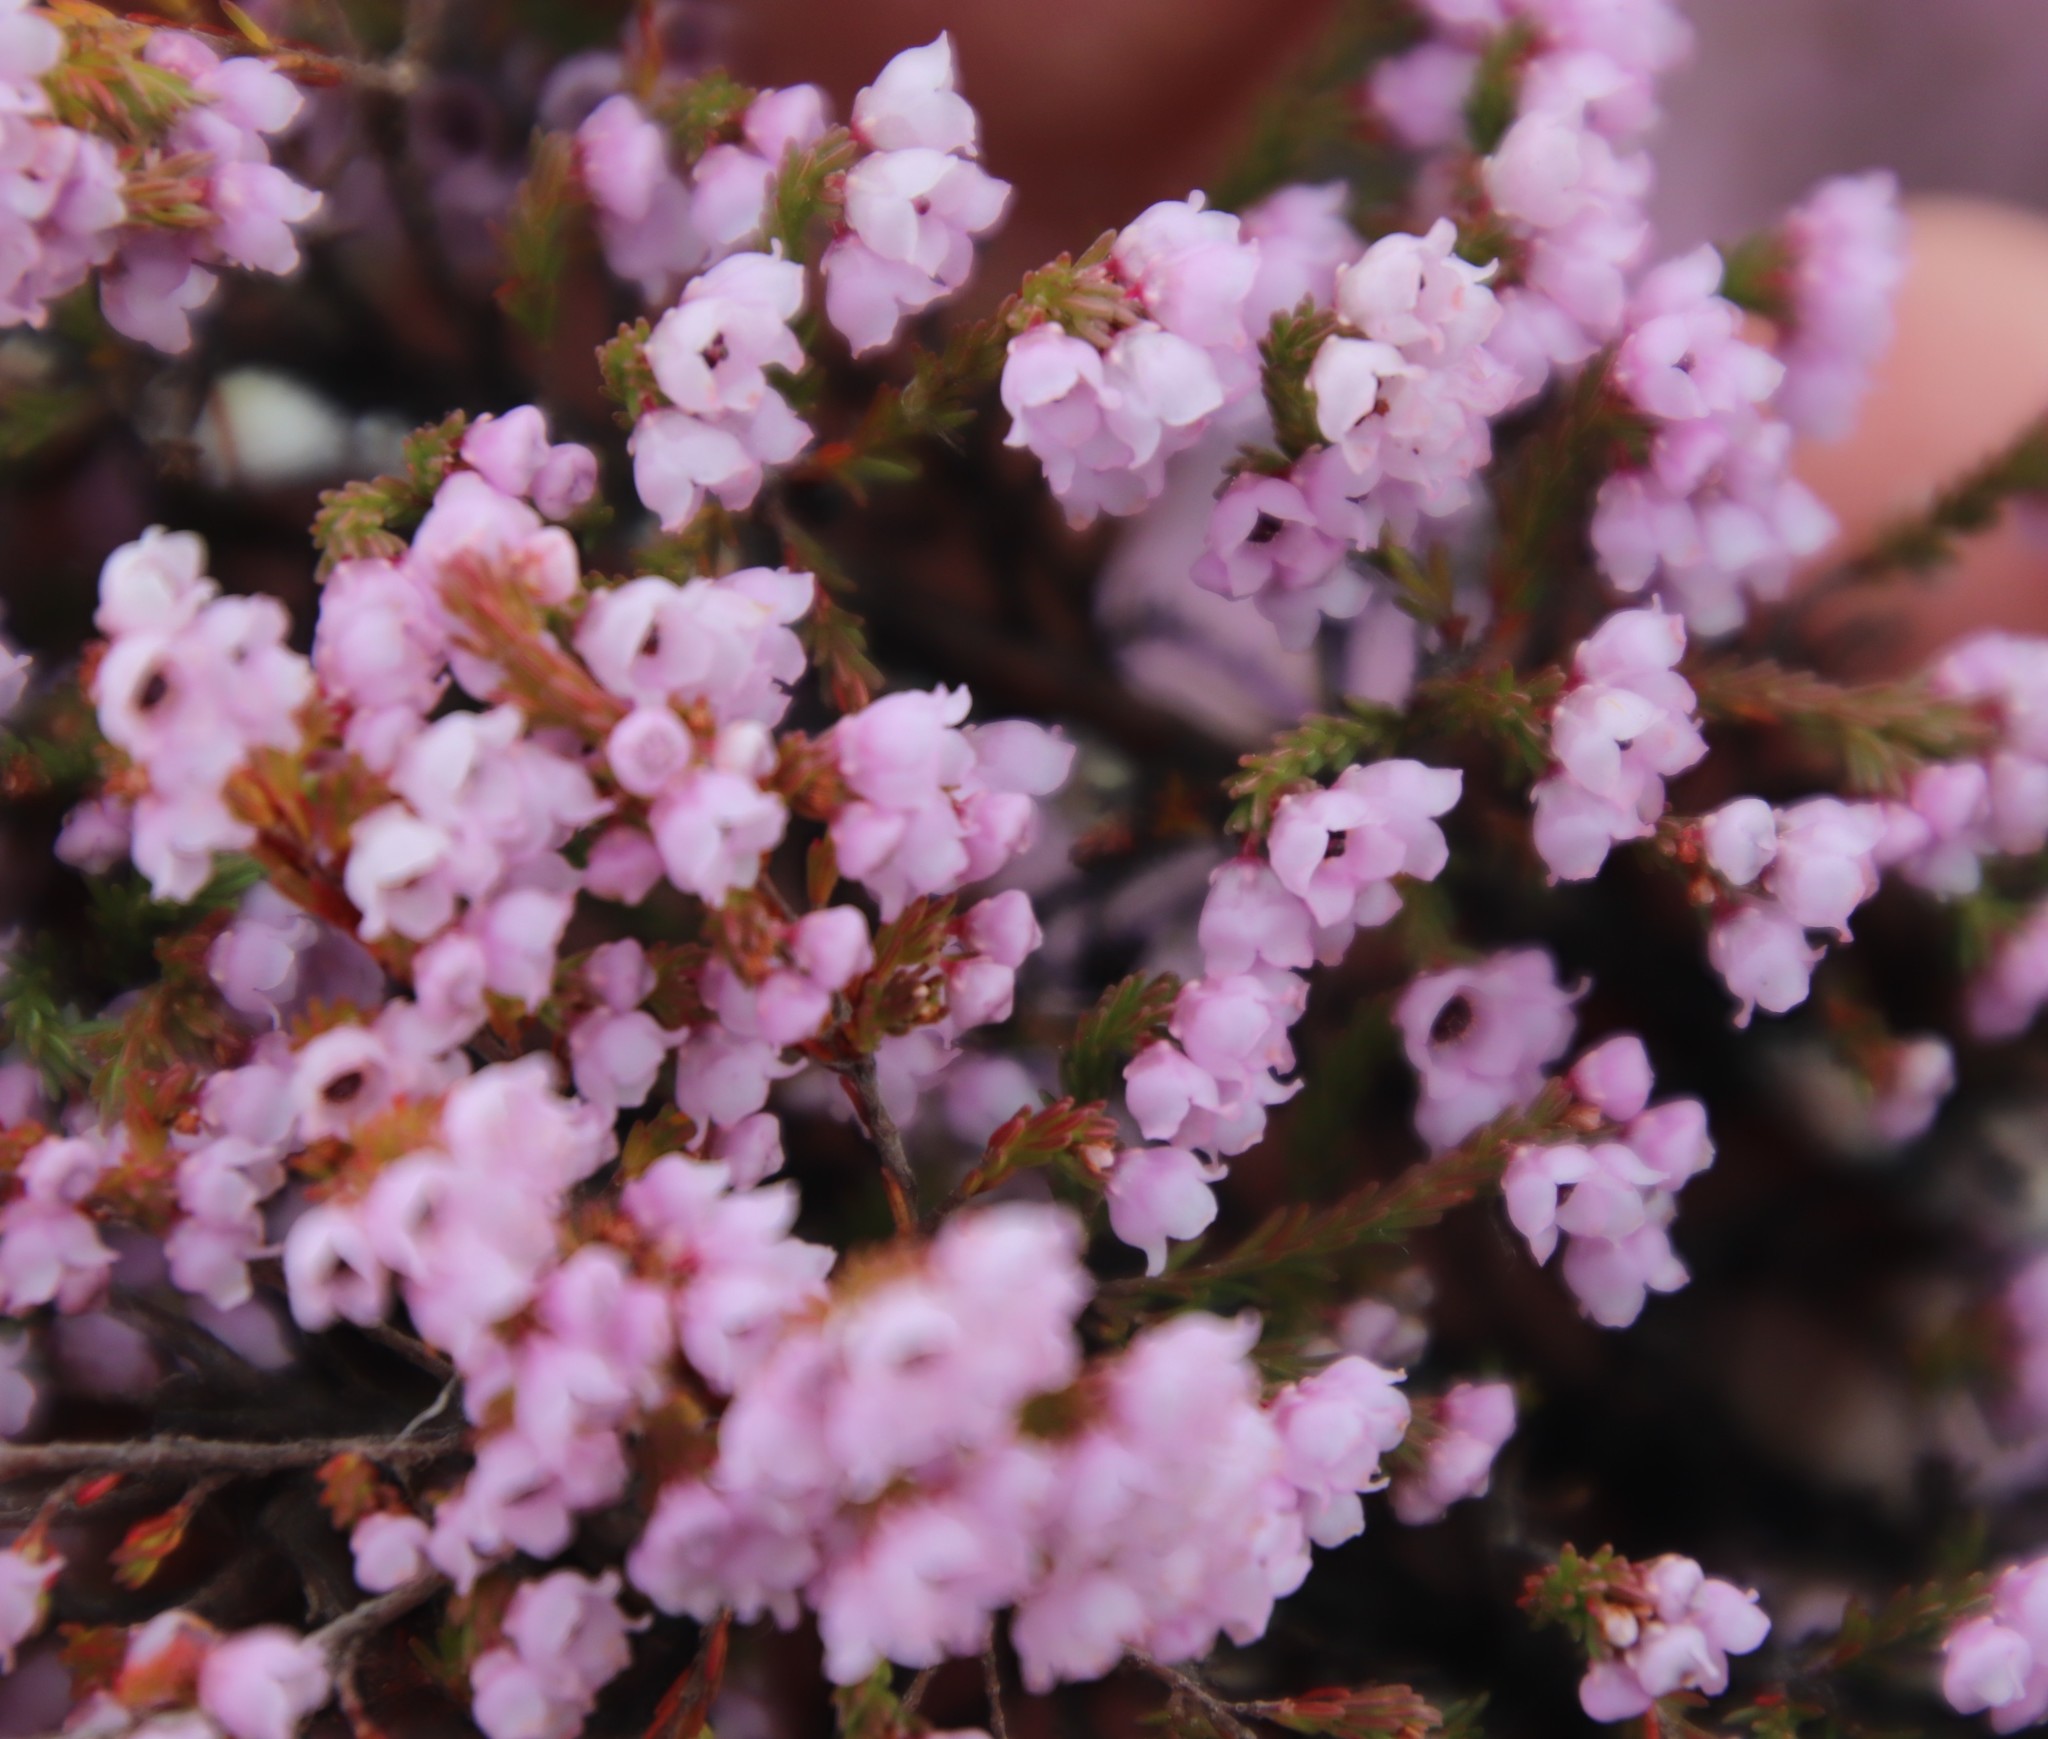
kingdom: Plantae
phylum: Tracheophyta
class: Magnoliopsida
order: Ericales
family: Ericaceae
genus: Erica
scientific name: Erica mauritanica
